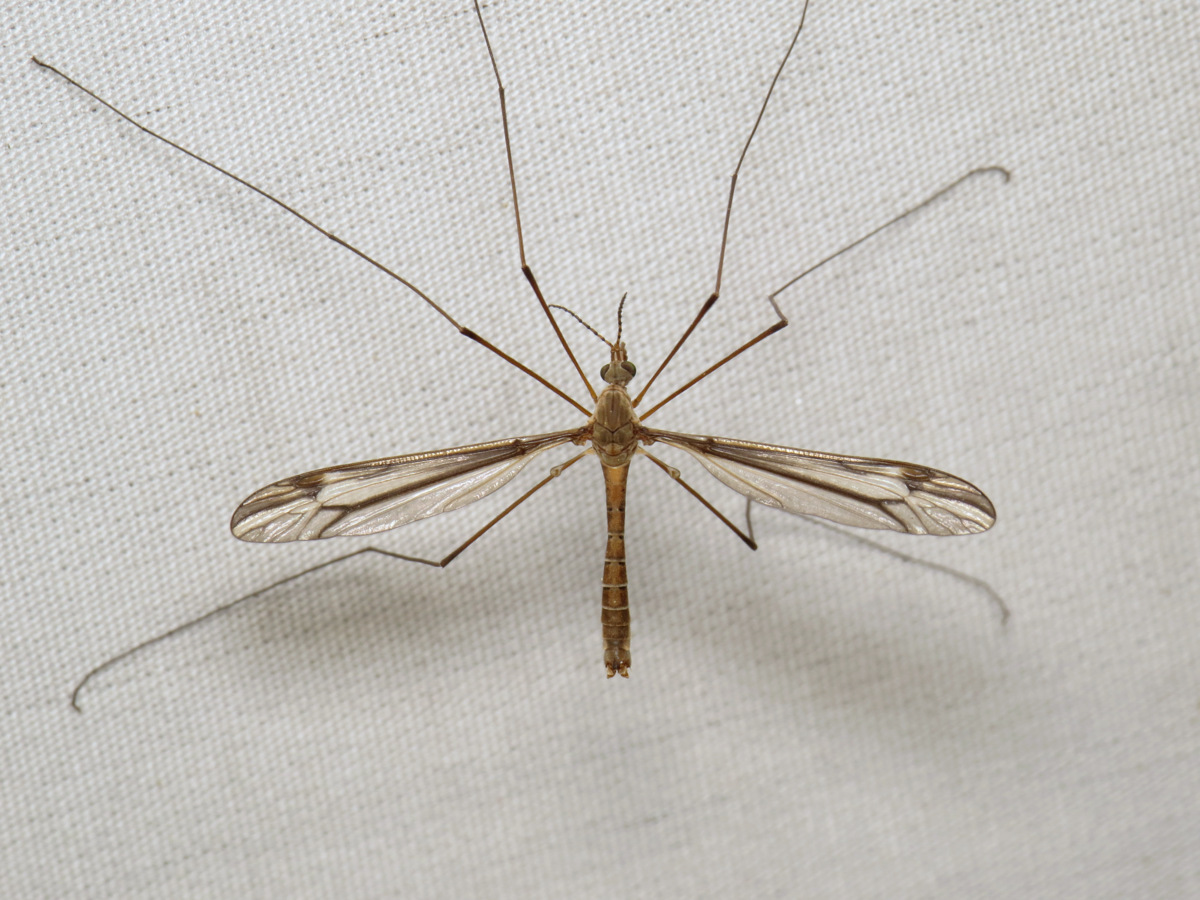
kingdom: Animalia
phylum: Arthropoda
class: Insecta
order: Diptera
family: Tipulidae
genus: Tipula
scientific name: Tipula furca
